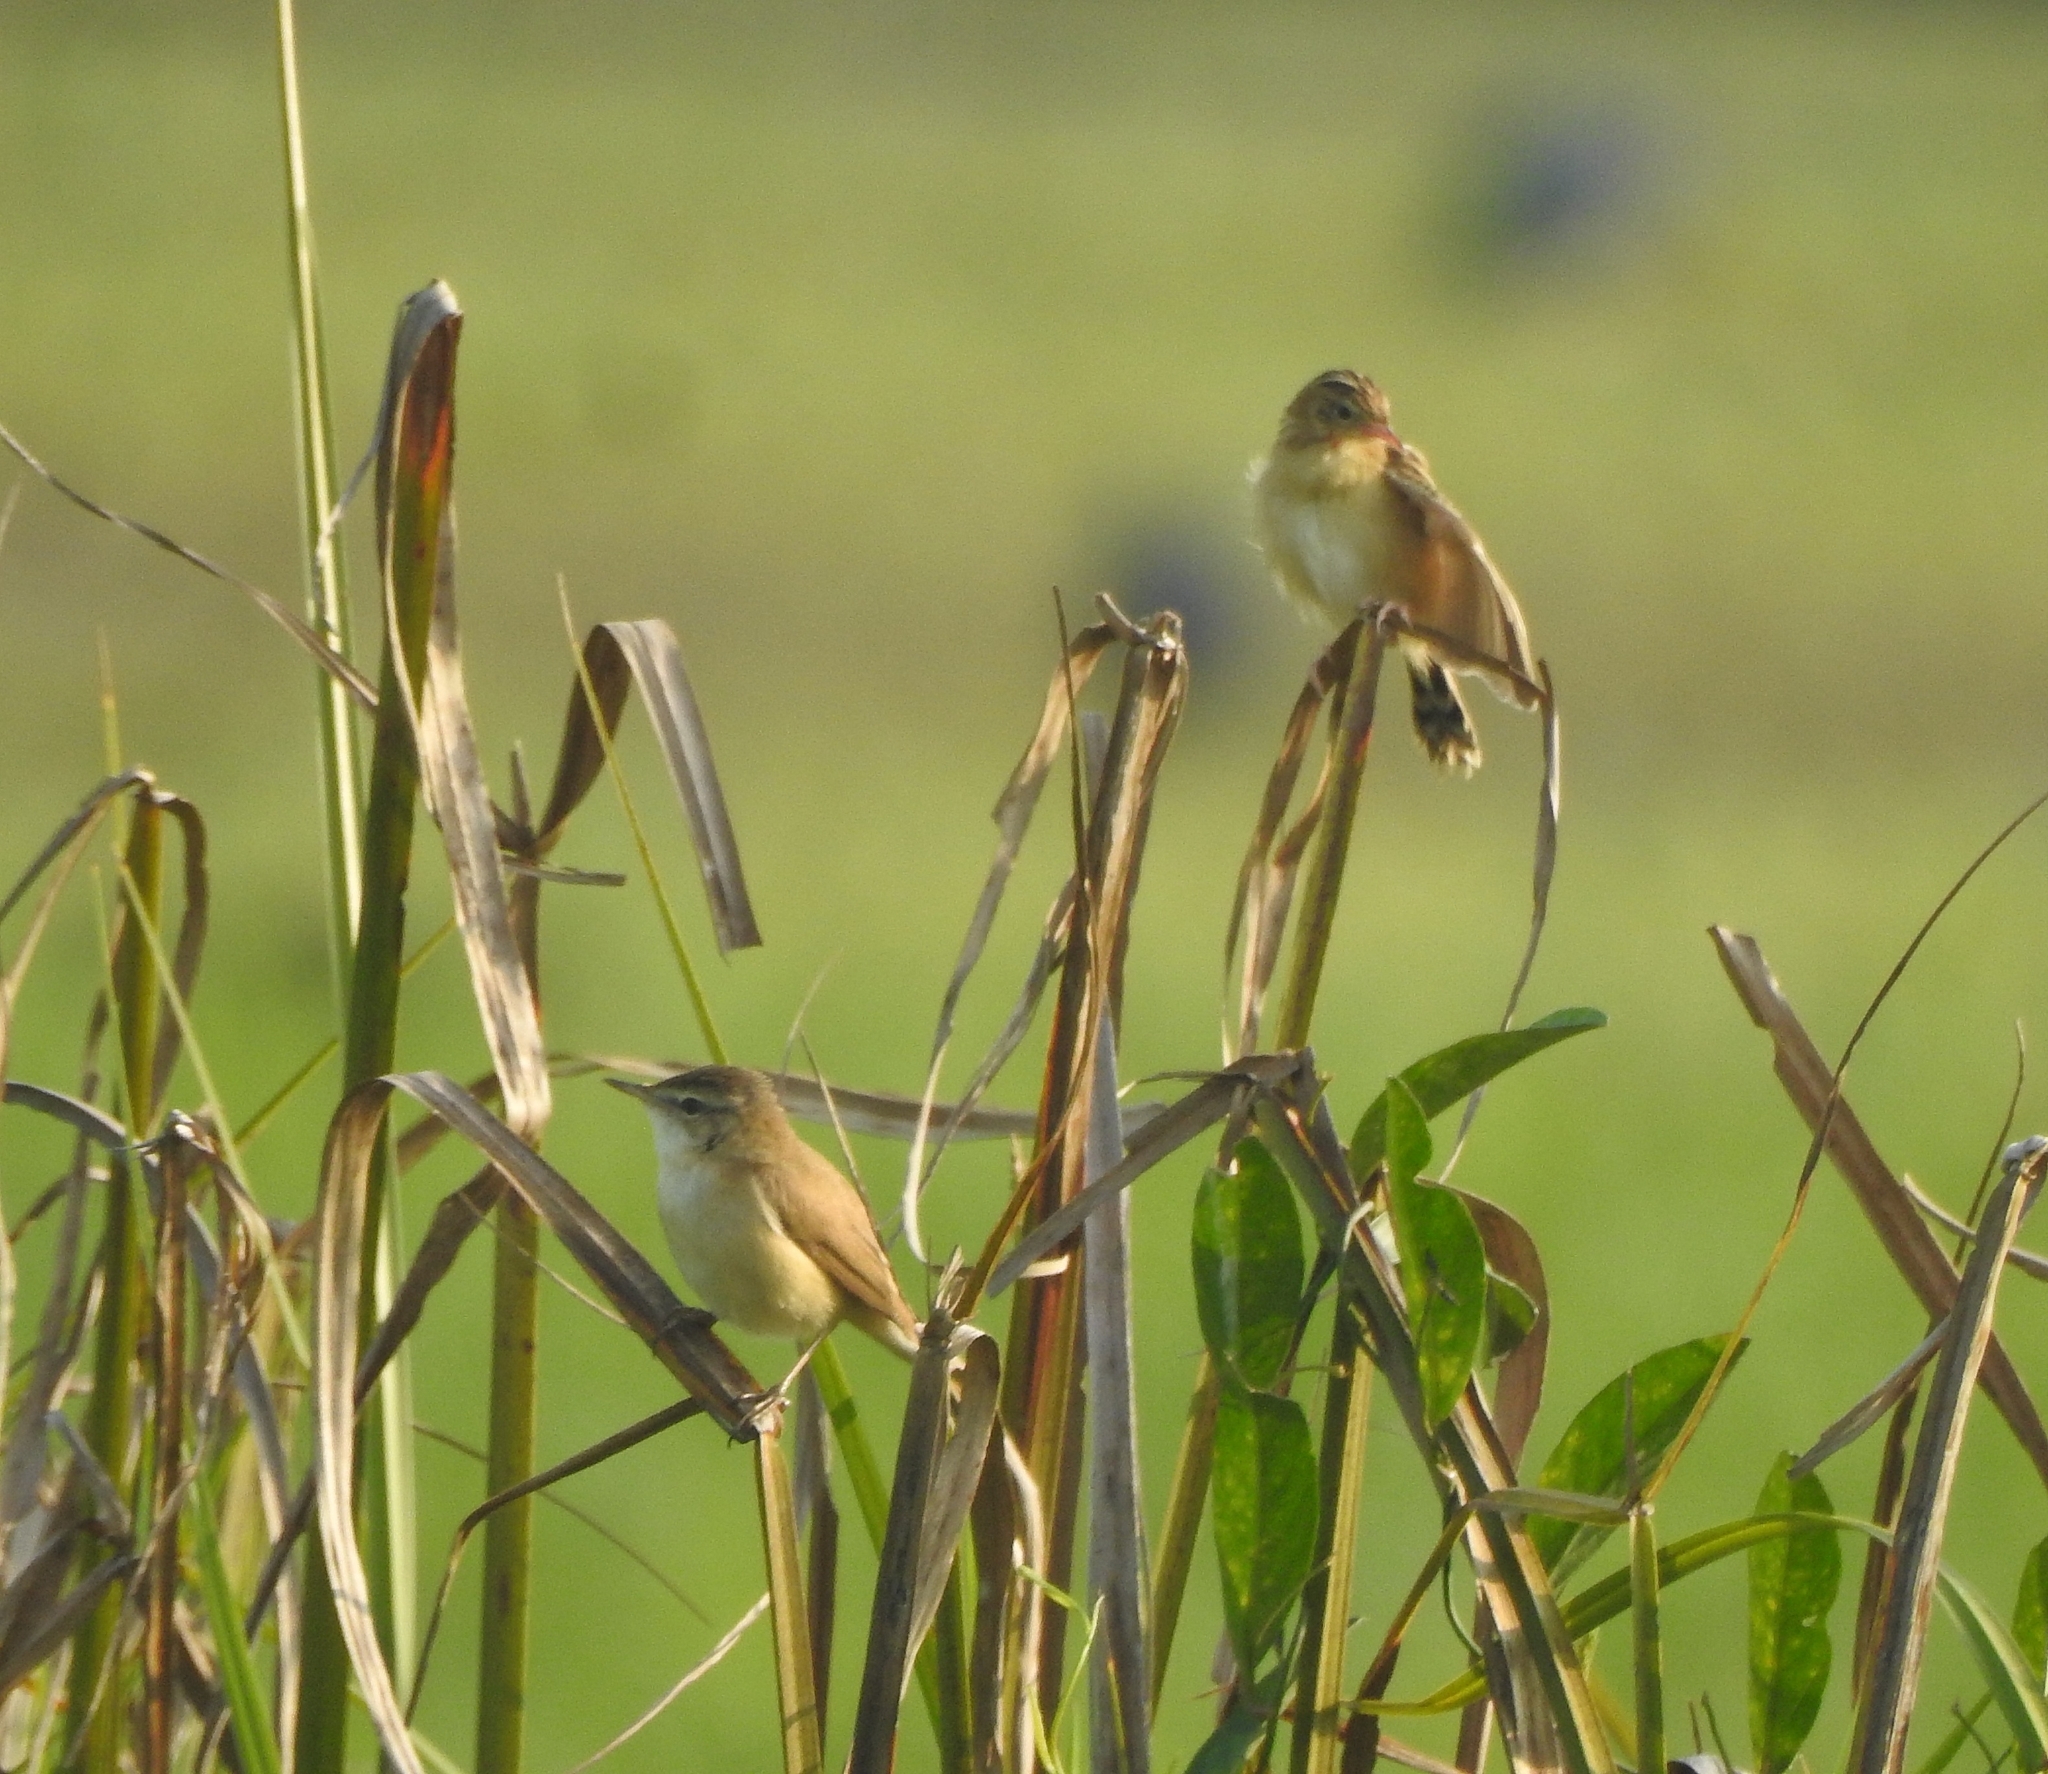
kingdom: Animalia
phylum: Chordata
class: Aves
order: Passeriformes
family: Cisticolidae
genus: Cisticola
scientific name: Cisticola juncidis
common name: Zitting cisticola
